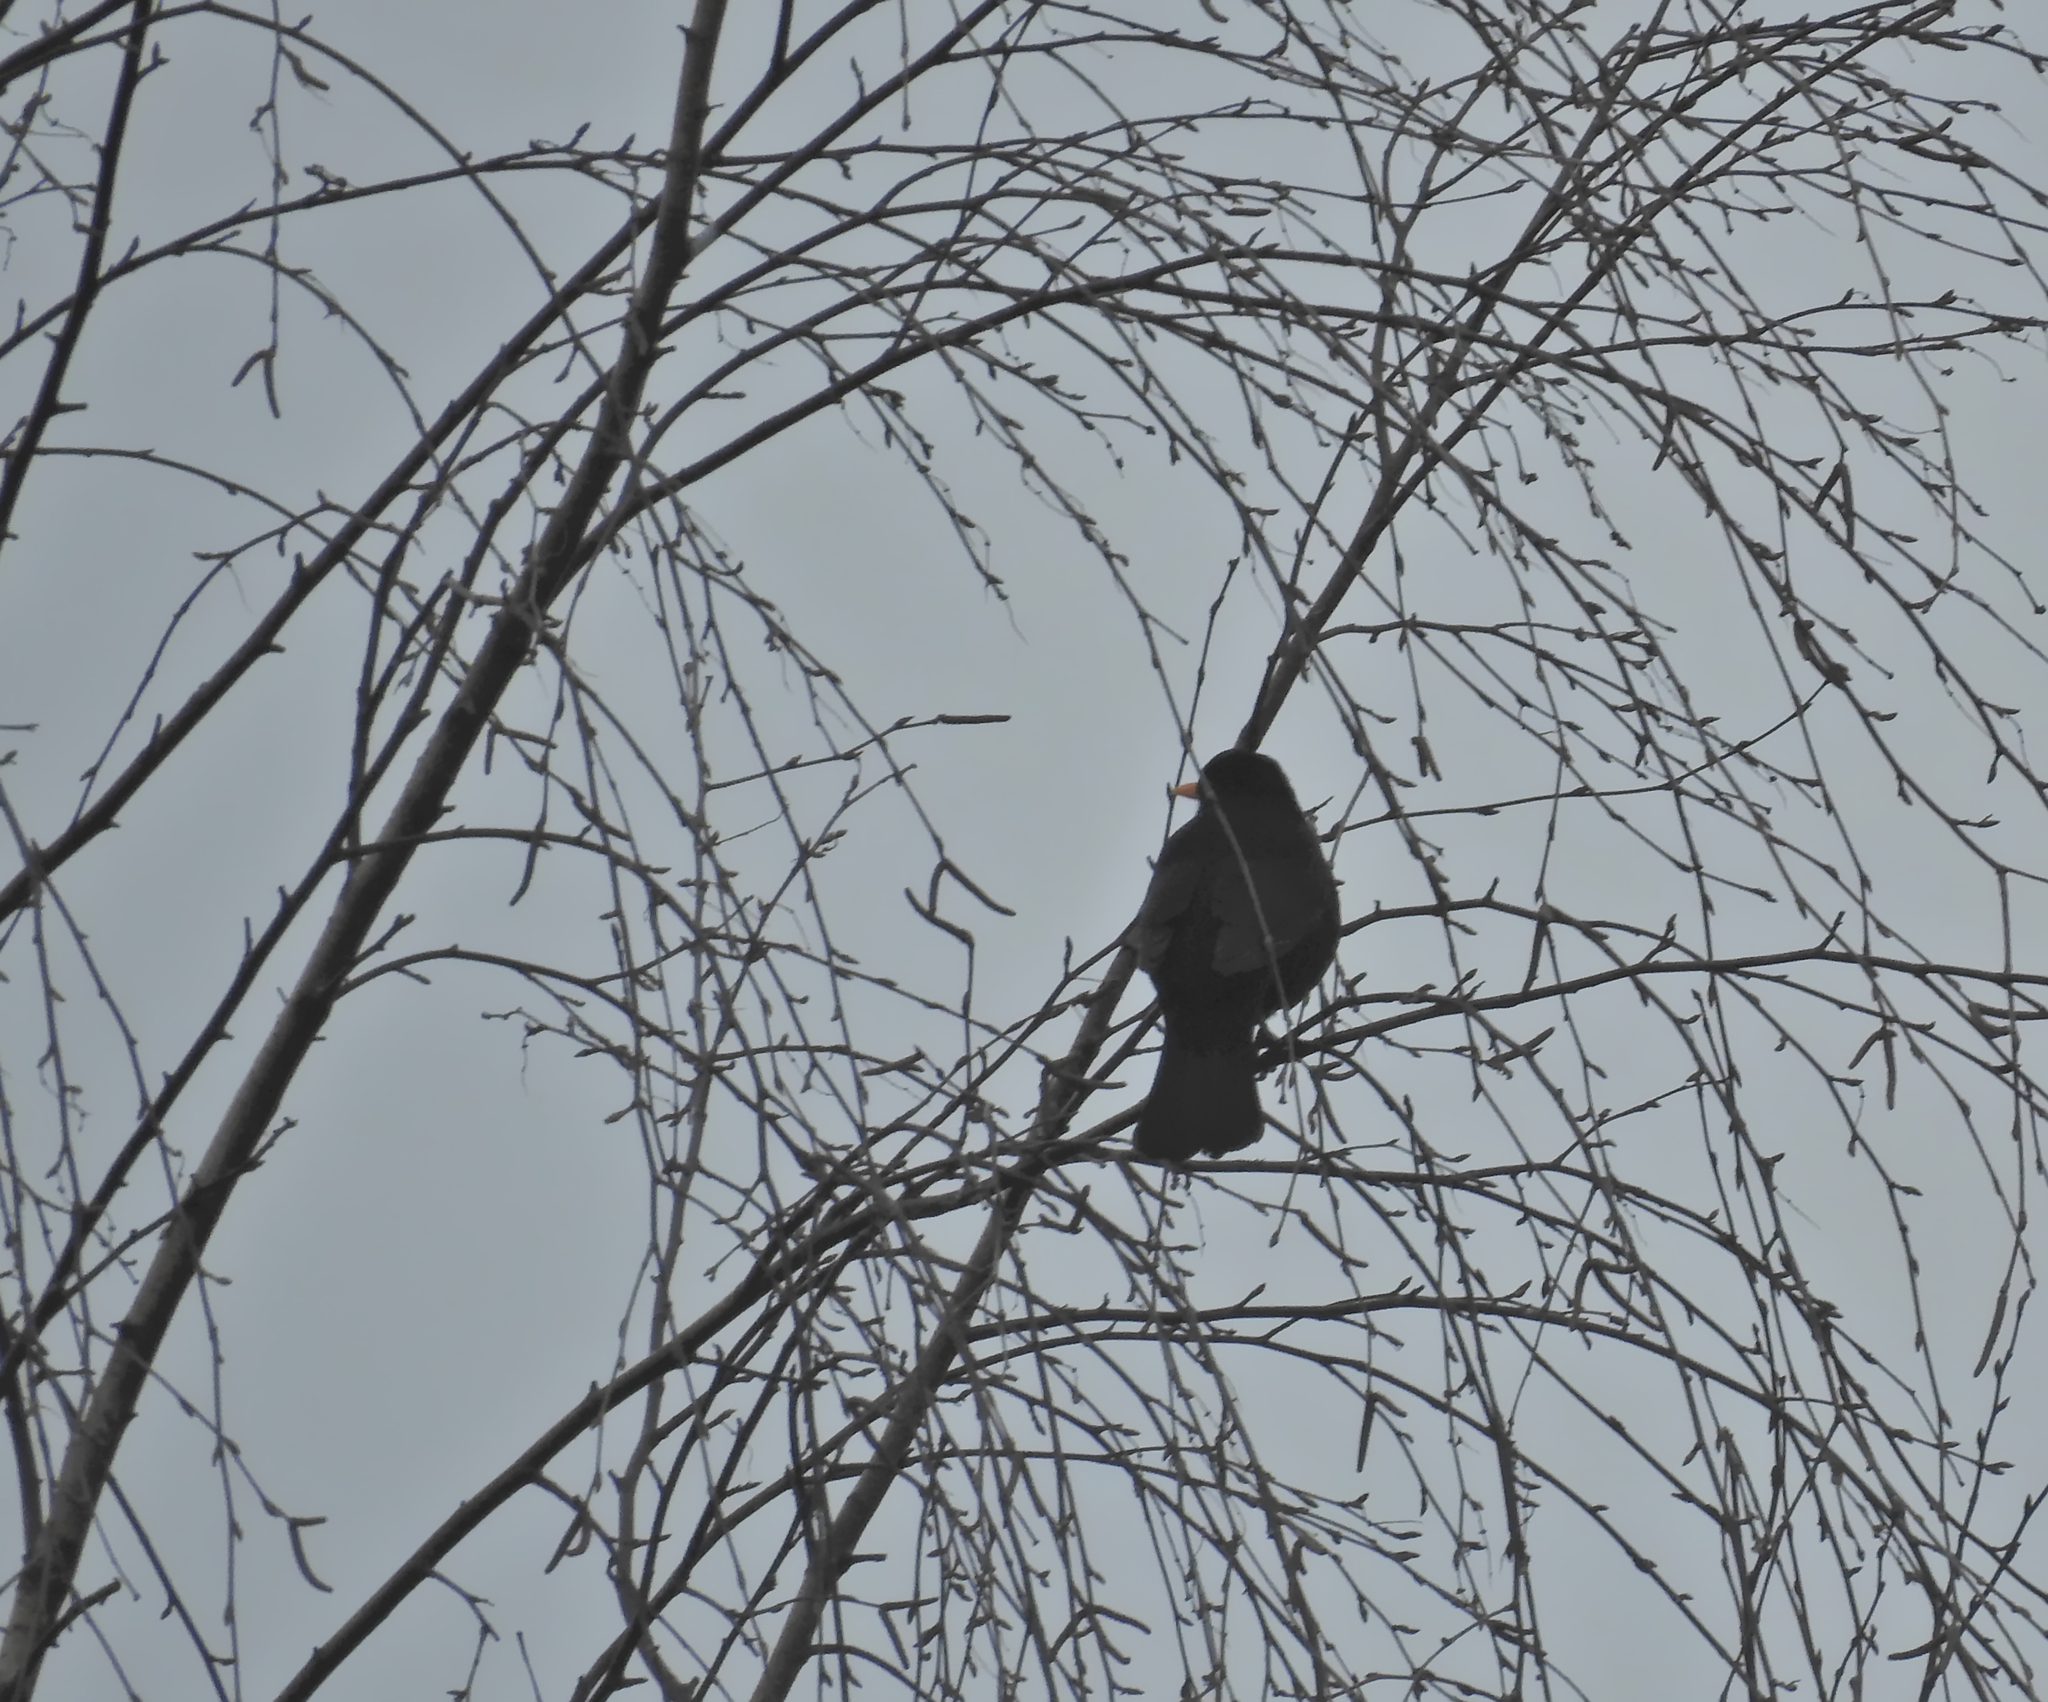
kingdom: Animalia
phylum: Chordata
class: Aves
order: Passeriformes
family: Turdidae
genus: Turdus
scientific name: Turdus merula
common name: Common blackbird
